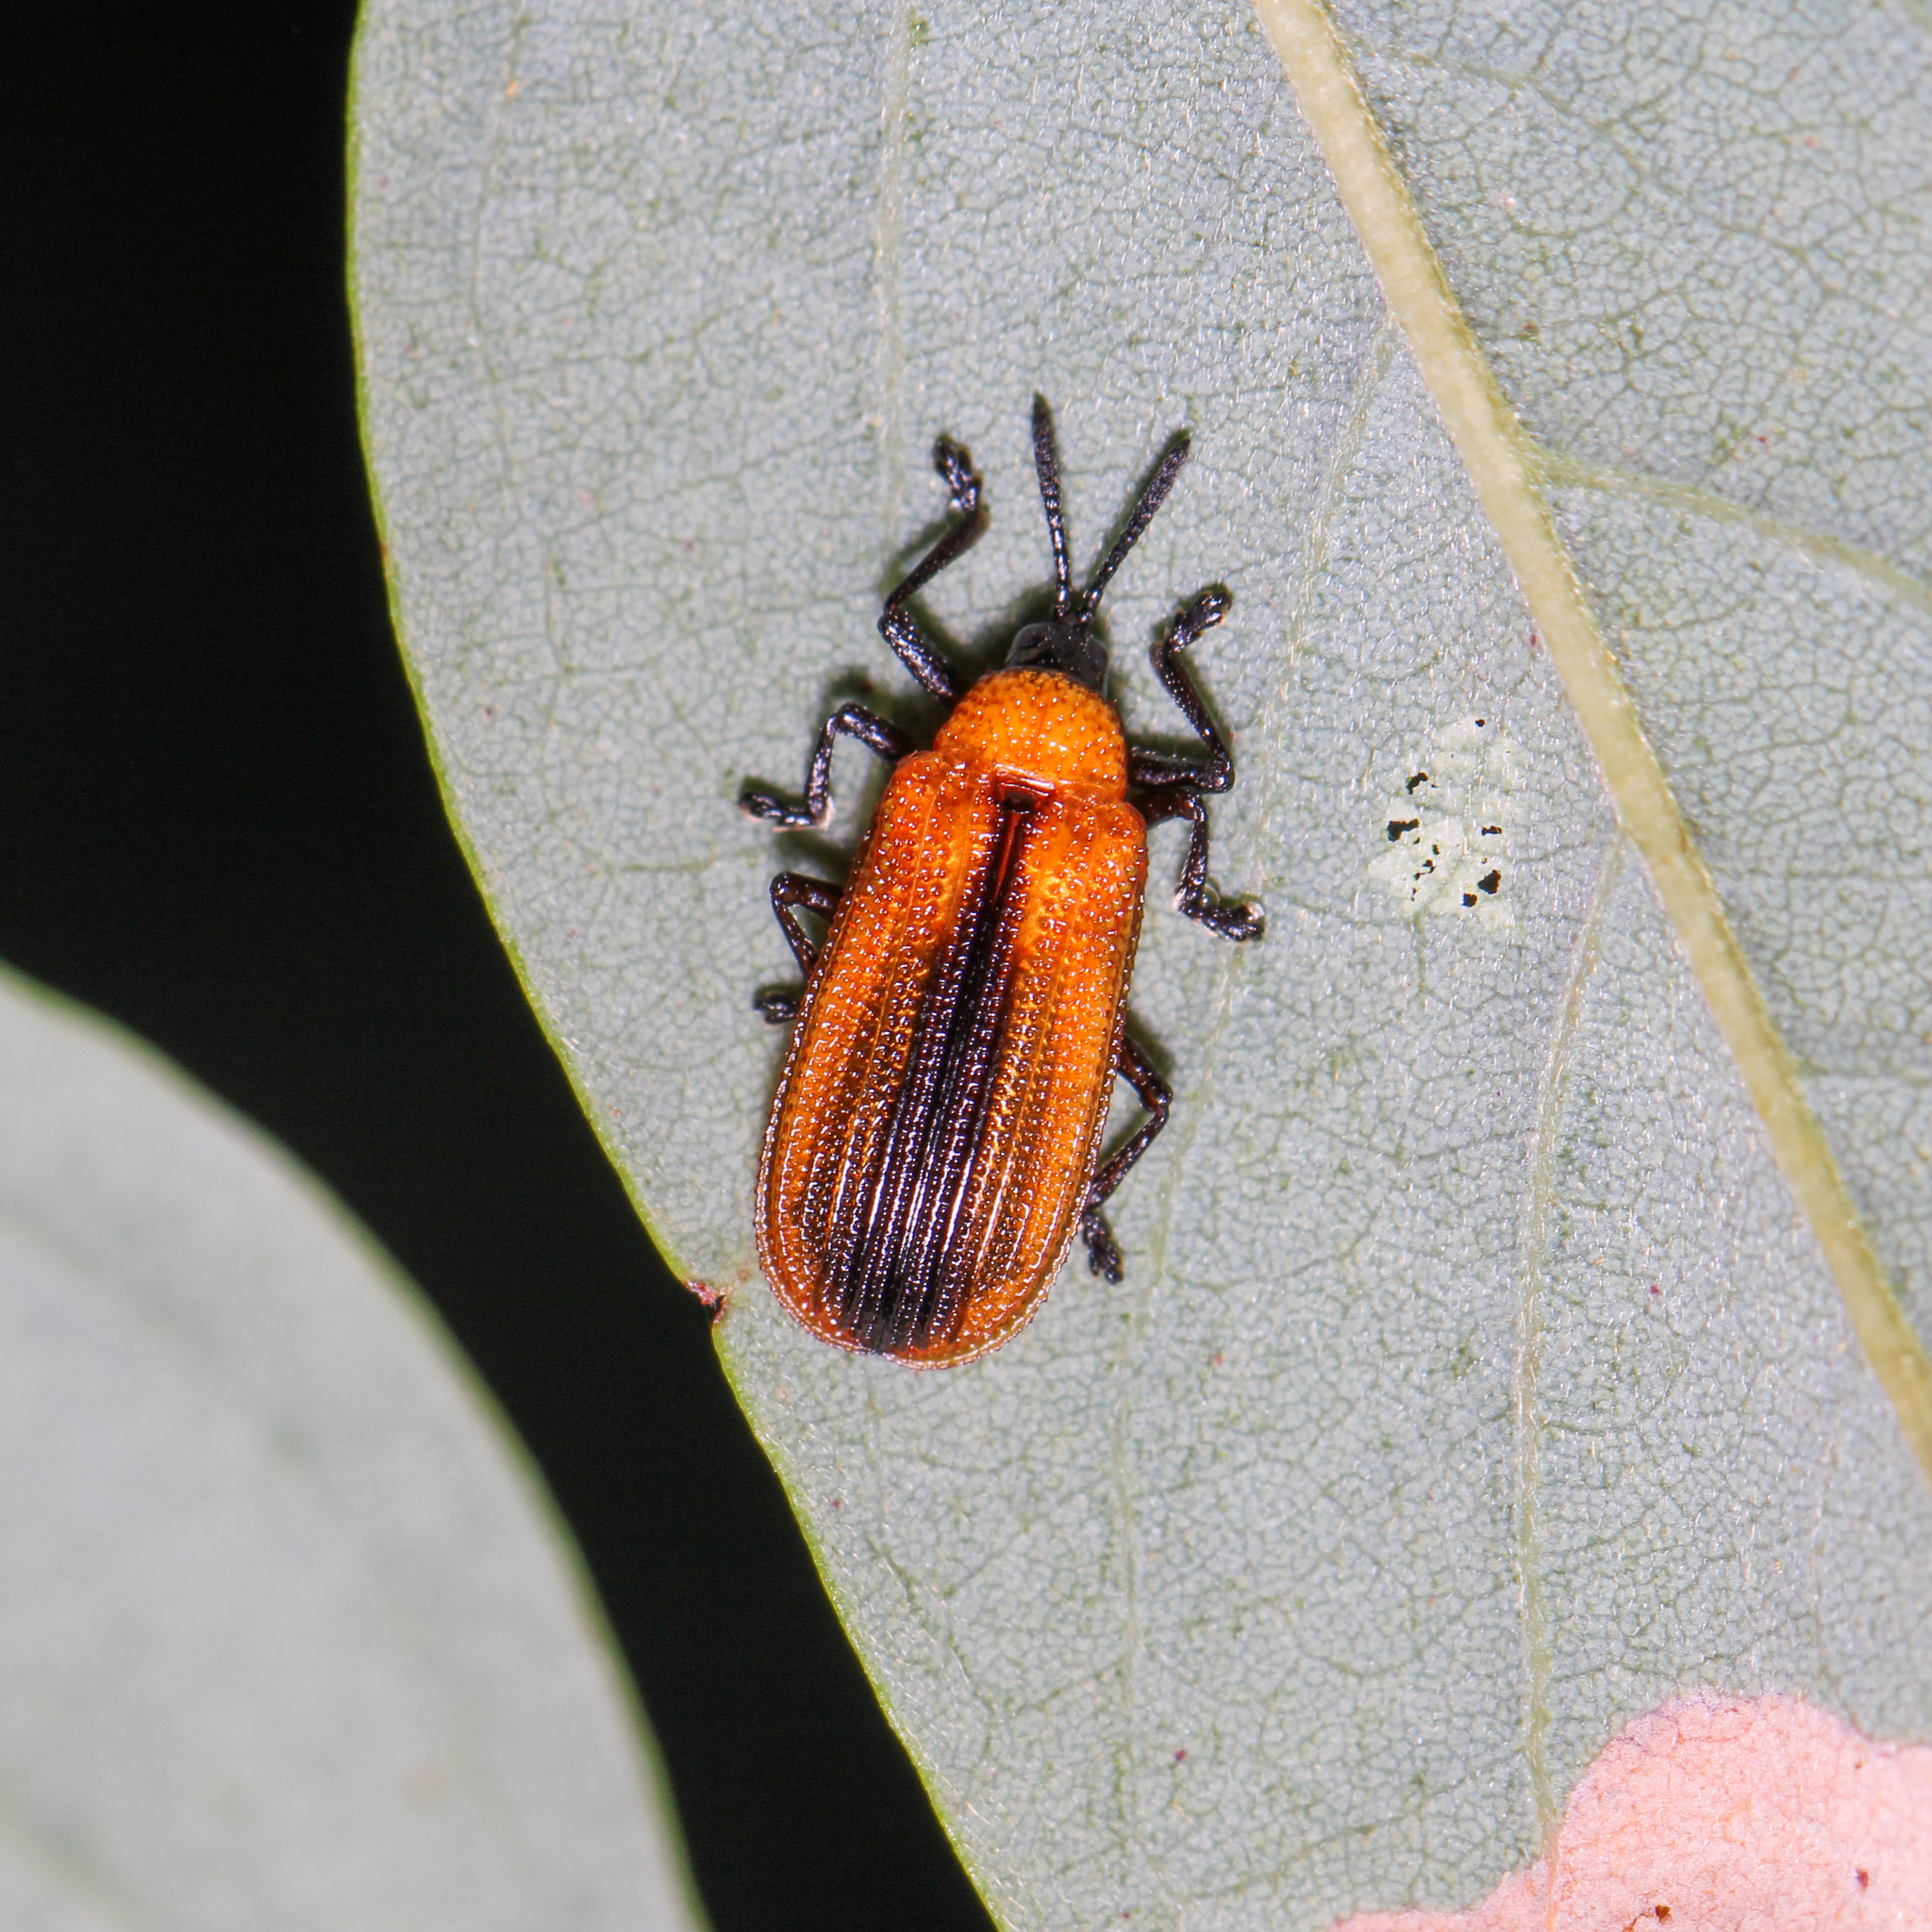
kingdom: Animalia
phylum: Arthropoda
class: Insecta
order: Coleoptera
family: Chrysomelidae
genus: Odontota
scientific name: Odontota dorsalis
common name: Locust leaf-miner beetle
